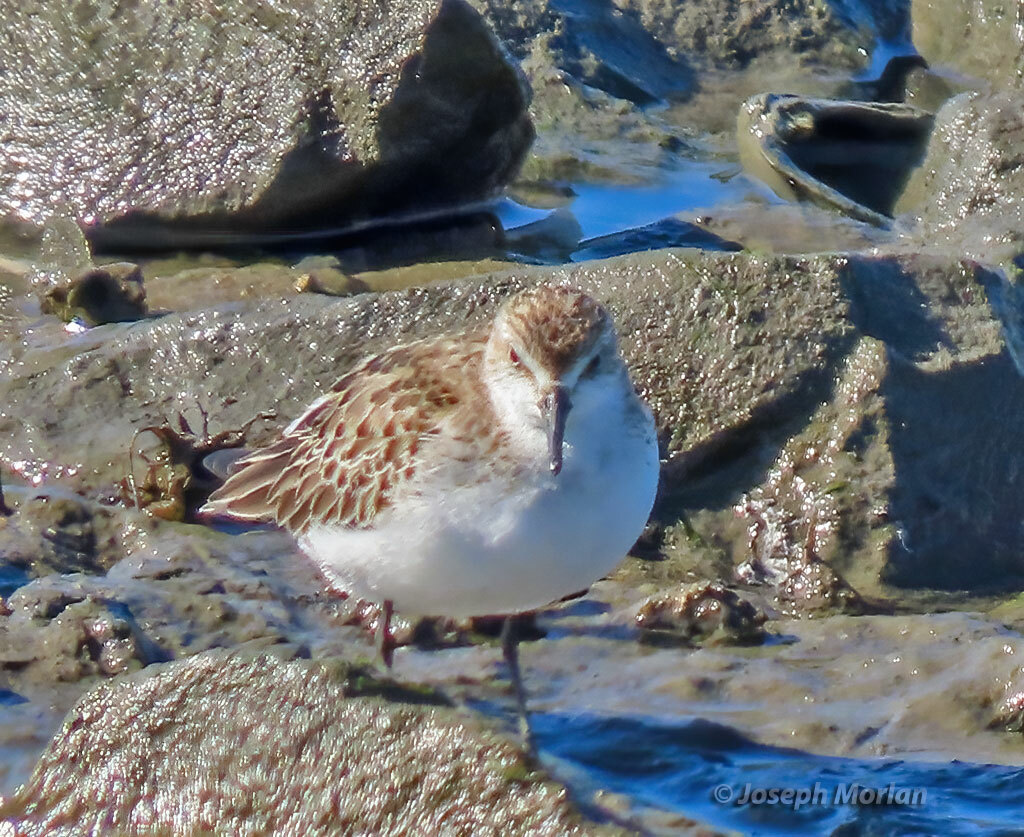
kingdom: Animalia
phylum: Chordata
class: Aves
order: Charadriiformes
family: Scolopacidae
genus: Calidris
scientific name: Calidris pusilla
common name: Semipalmated sandpiper
